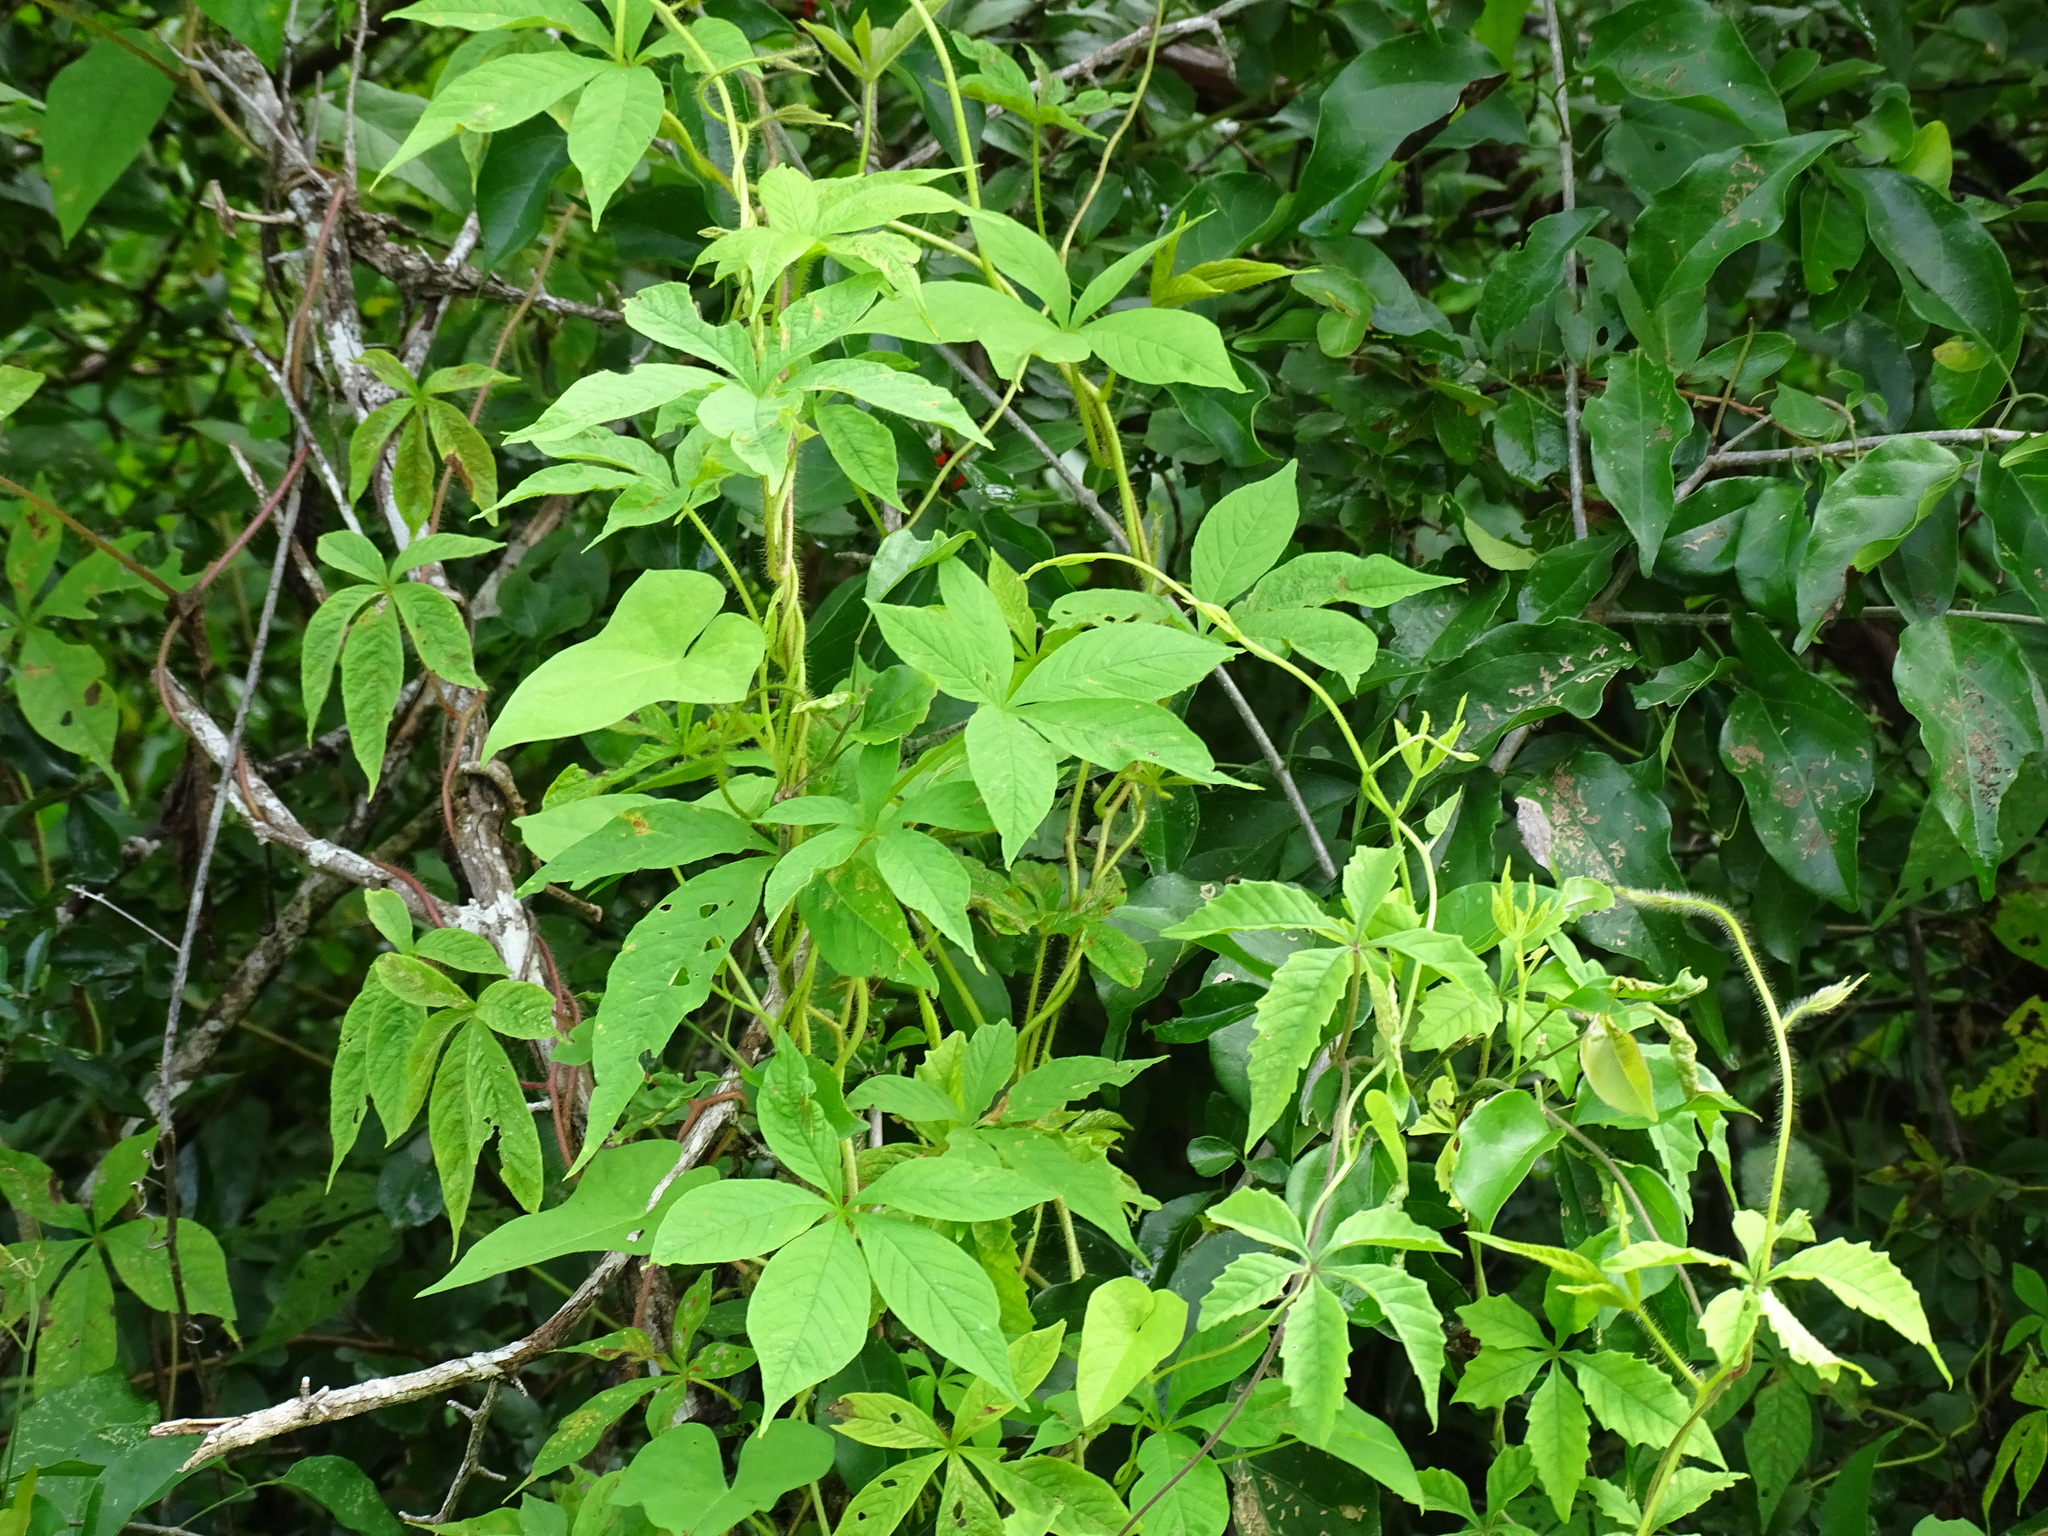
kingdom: Plantae
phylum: Tracheophyta
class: Magnoliopsida
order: Solanales
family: Convolvulaceae
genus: Distimake
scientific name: Distimake aegyptius
